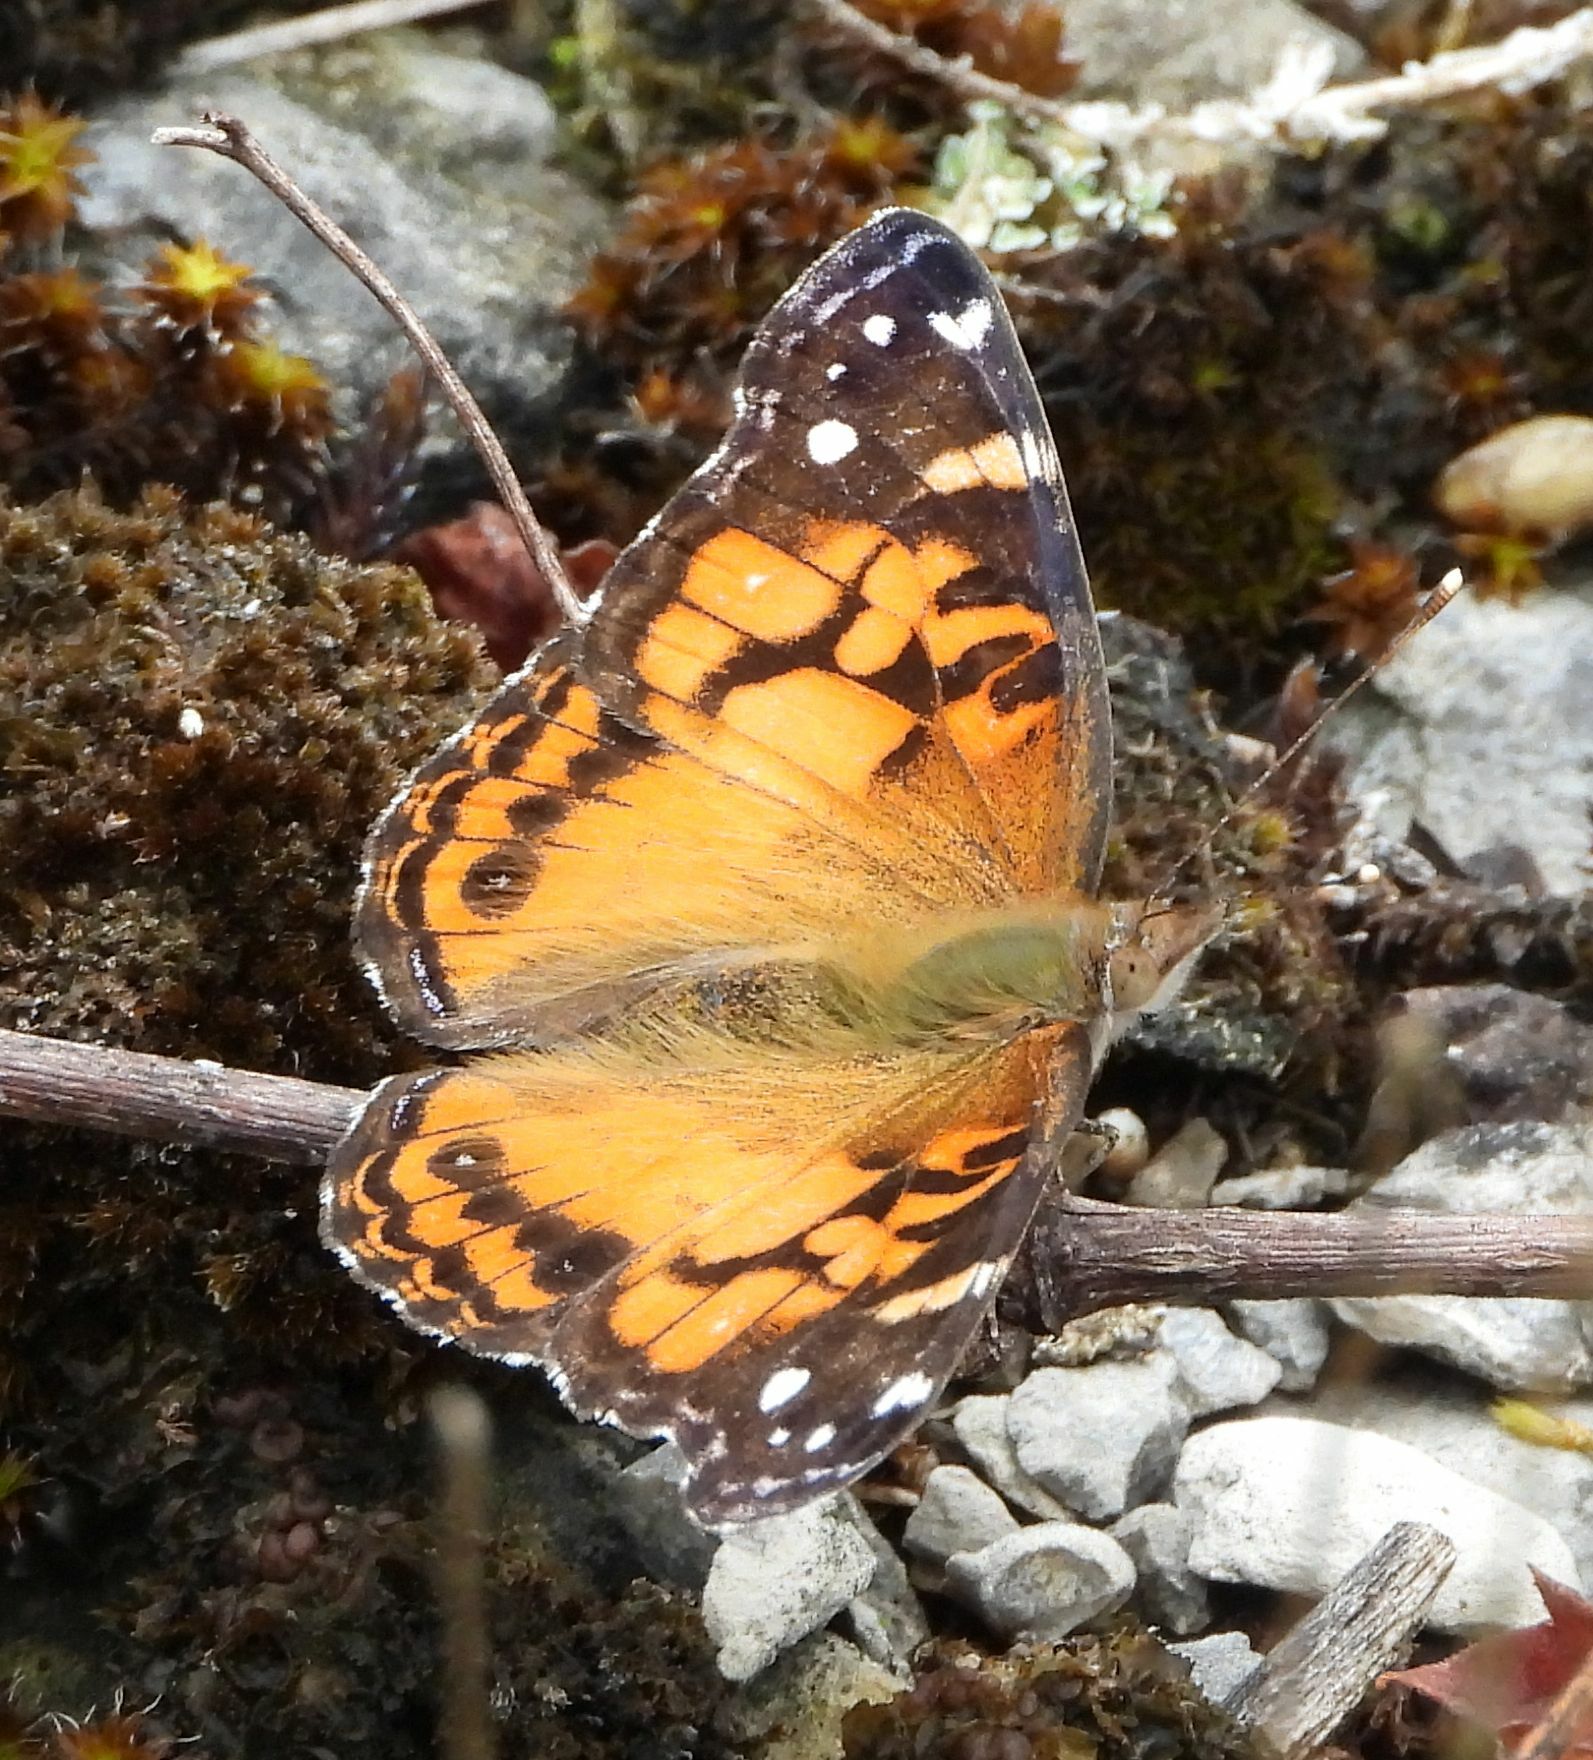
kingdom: Animalia
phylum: Arthropoda
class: Insecta
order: Lepidoptera
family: Nymphalidae
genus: Vanessa
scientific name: Vanessa virginiensis
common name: American lady
